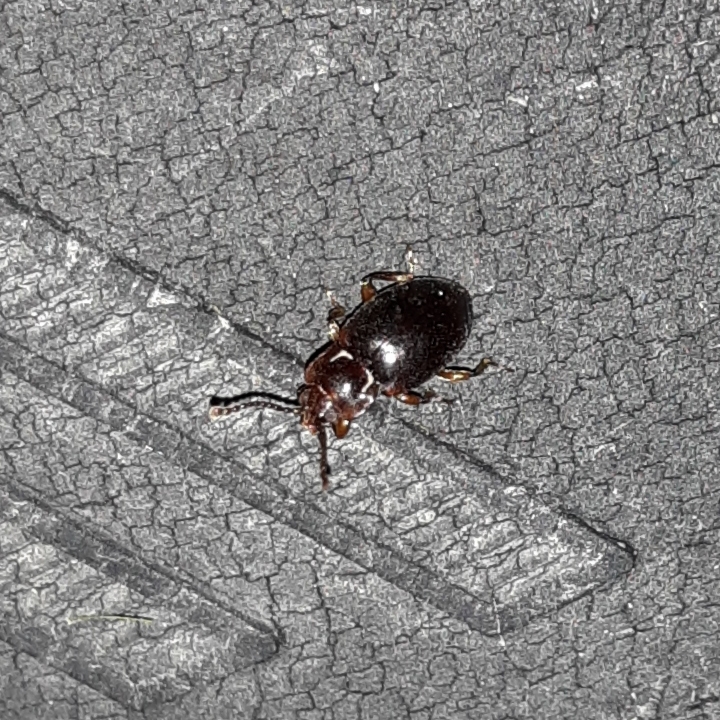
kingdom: Animalia
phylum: Arthropoda
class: Insecta
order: Coleoptera
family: Endomychidae
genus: Lycoperdina
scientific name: Lycoperdina ferruginea
